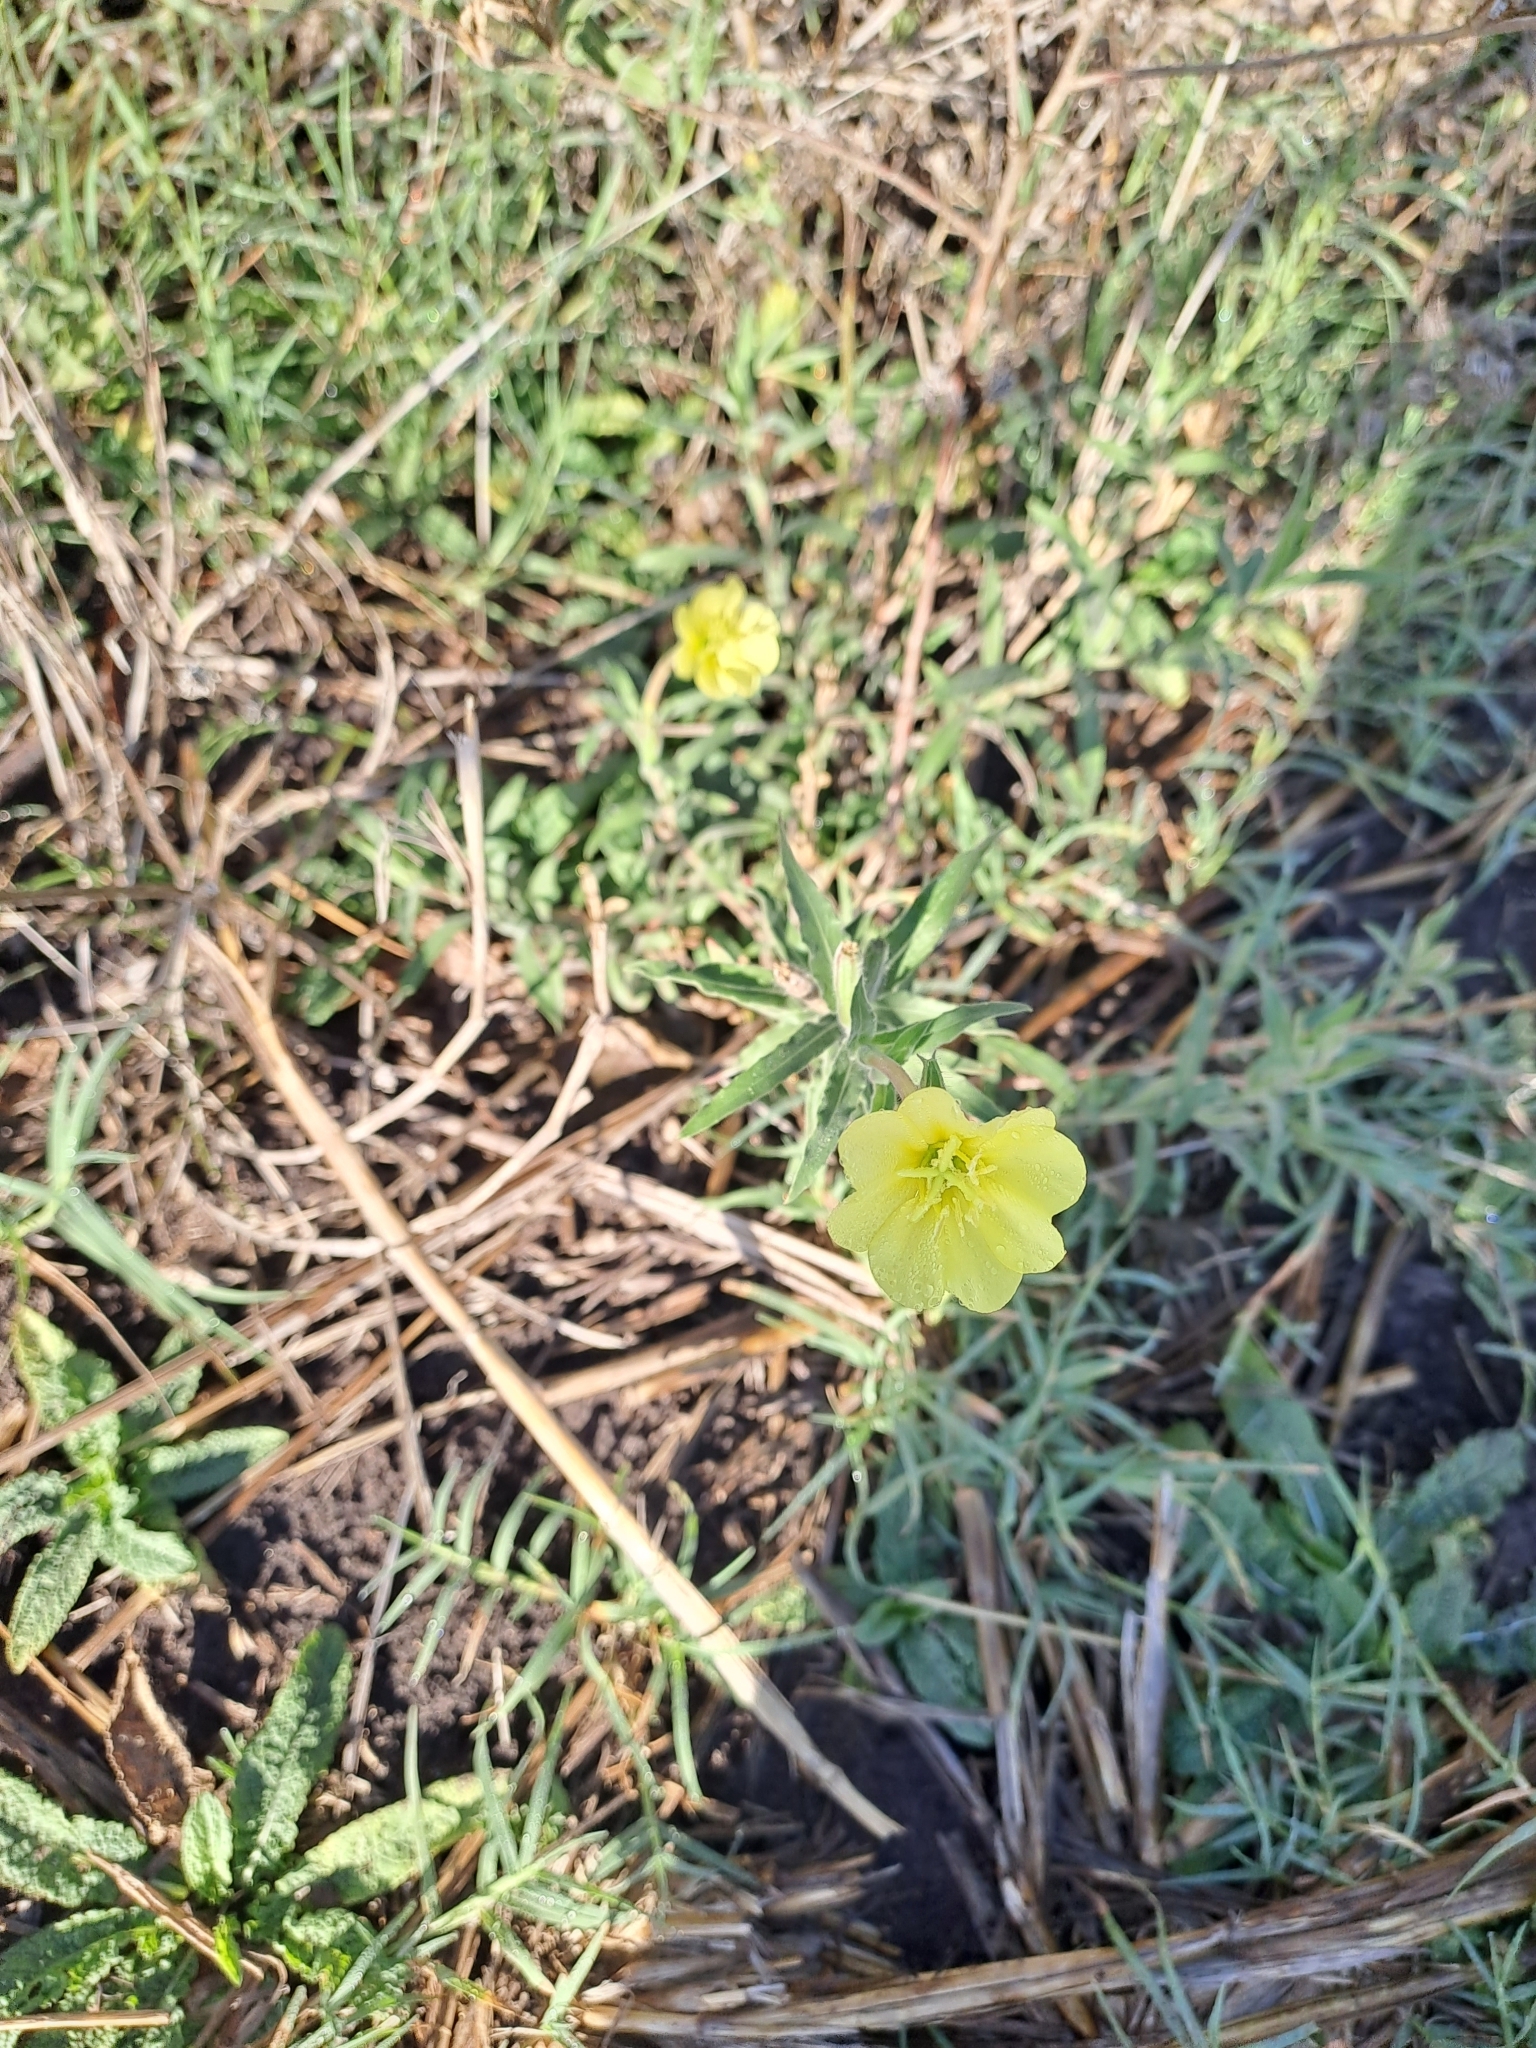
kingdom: Plantae
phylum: Tracheophyta
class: Magnoliopsida
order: Myrtales
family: Onagraceae
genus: Oenothera
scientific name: Oenothera affinis
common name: Longflower evening primrose
